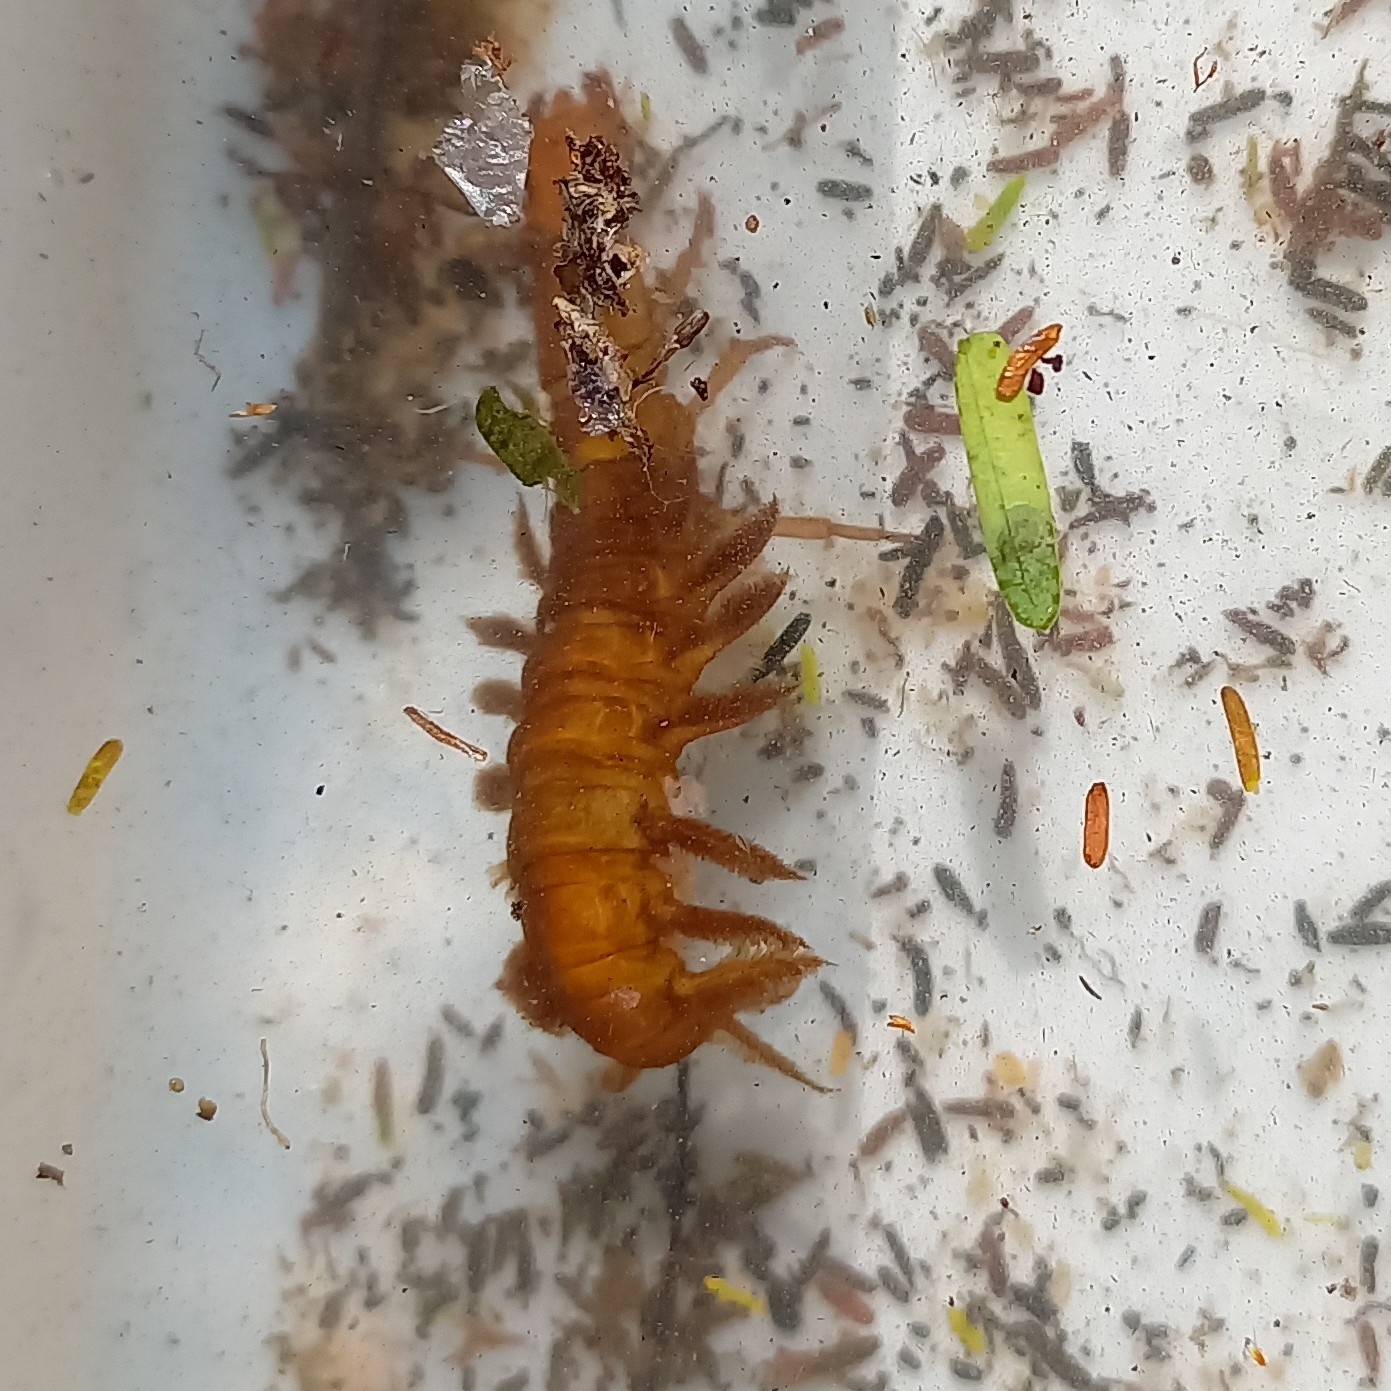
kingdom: Animalia
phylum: Arthropoda
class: Insecta
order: Megaloptera
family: Corydalidae
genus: Chloroniella
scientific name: Chloroniella peringueyi
